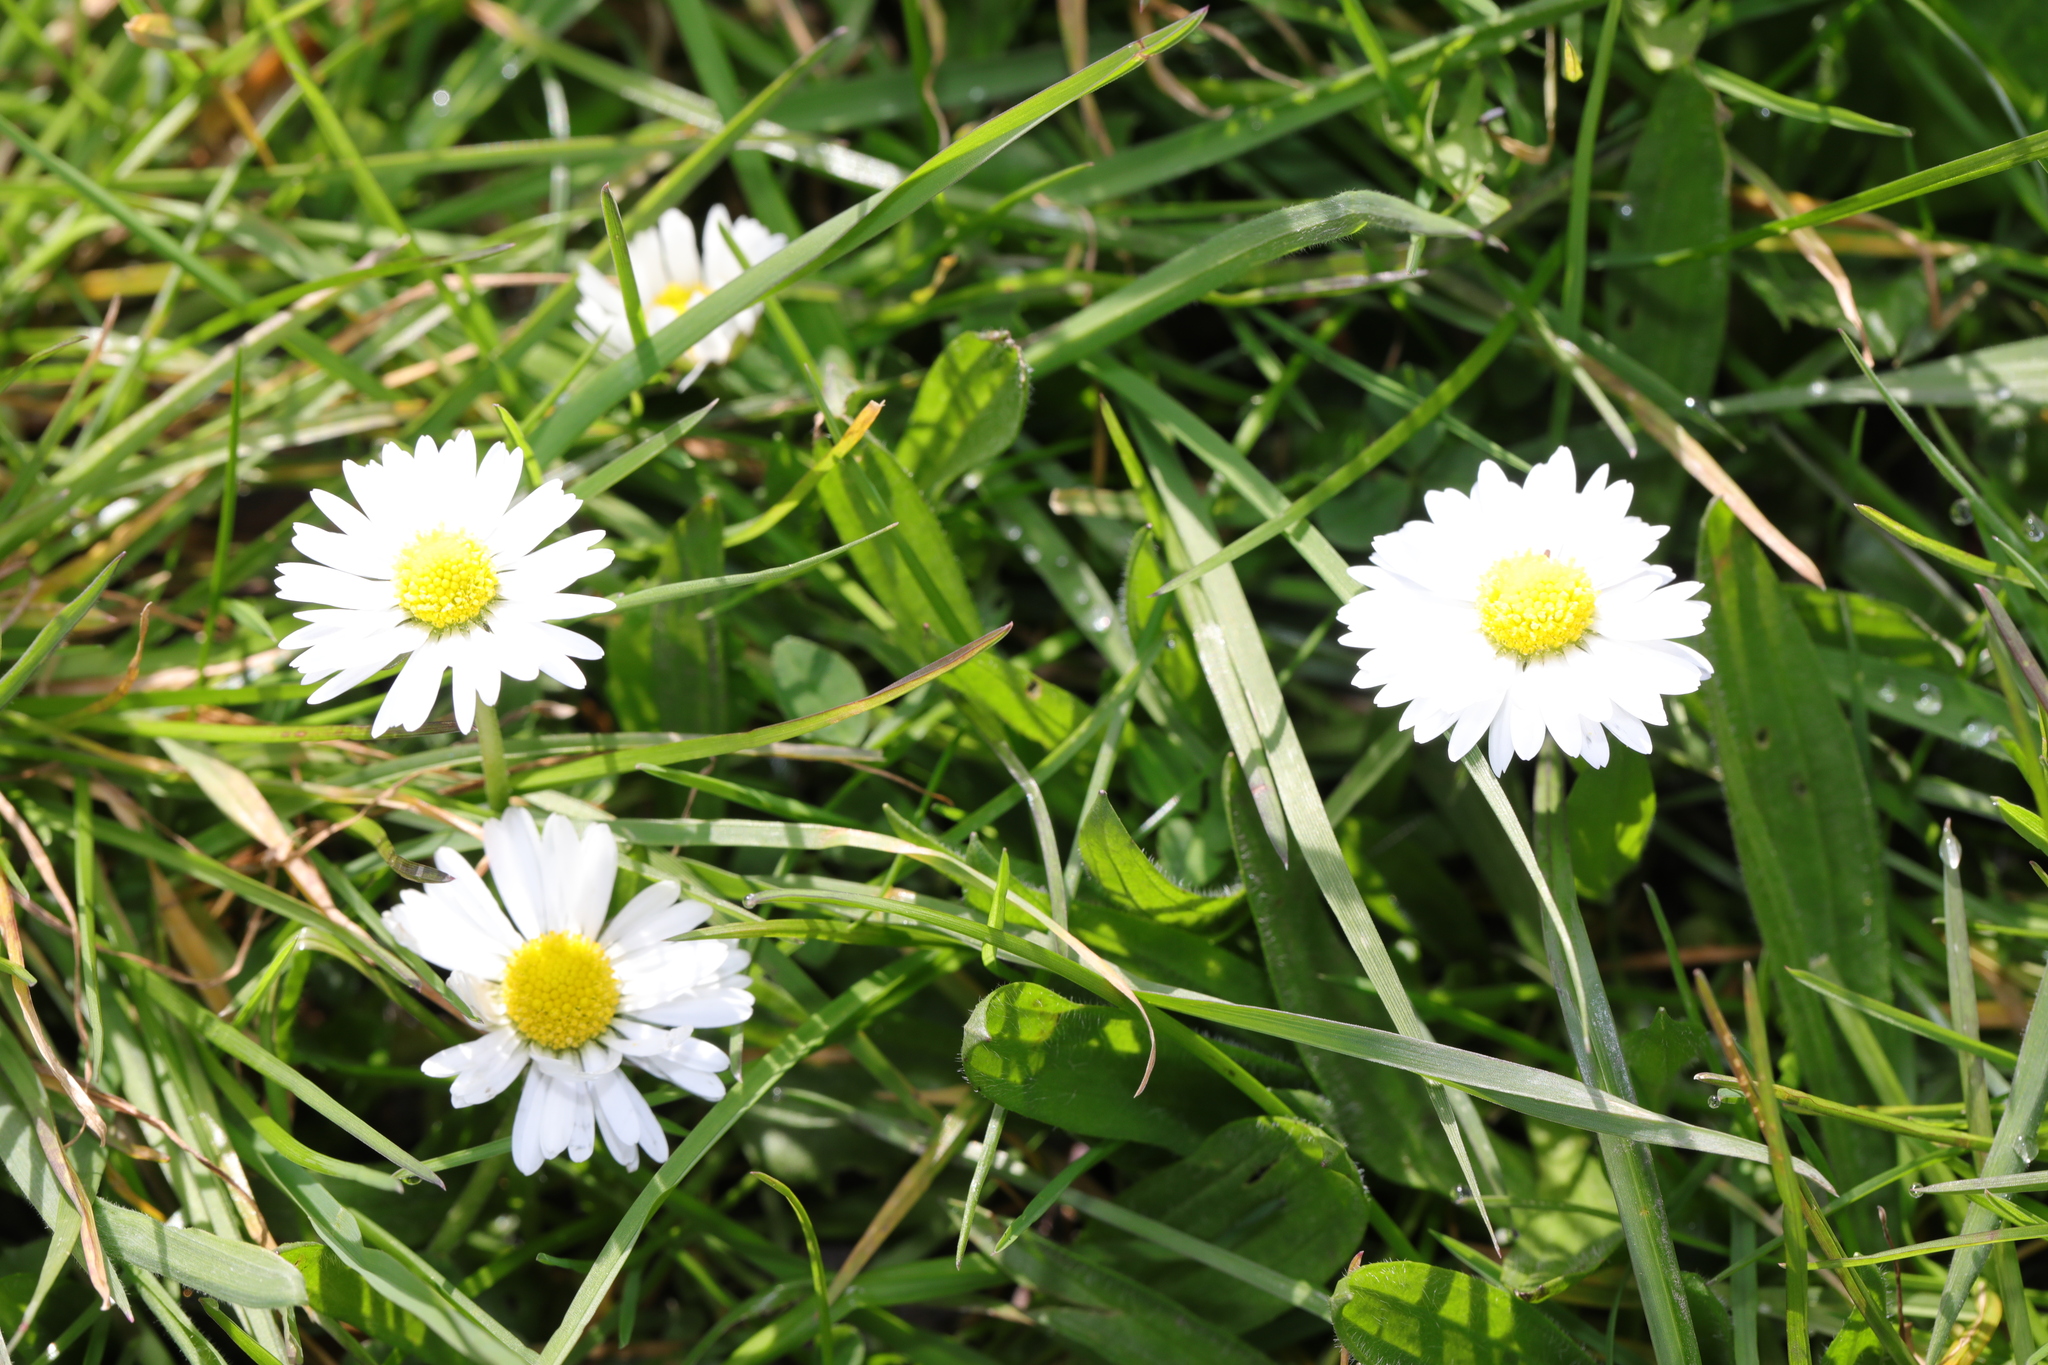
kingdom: Plantae
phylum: Tracheophyta
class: Magnoliopsida
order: Asterales
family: Asteraceae
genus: Bellis
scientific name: Bellis perennis
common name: Lawndaisy
